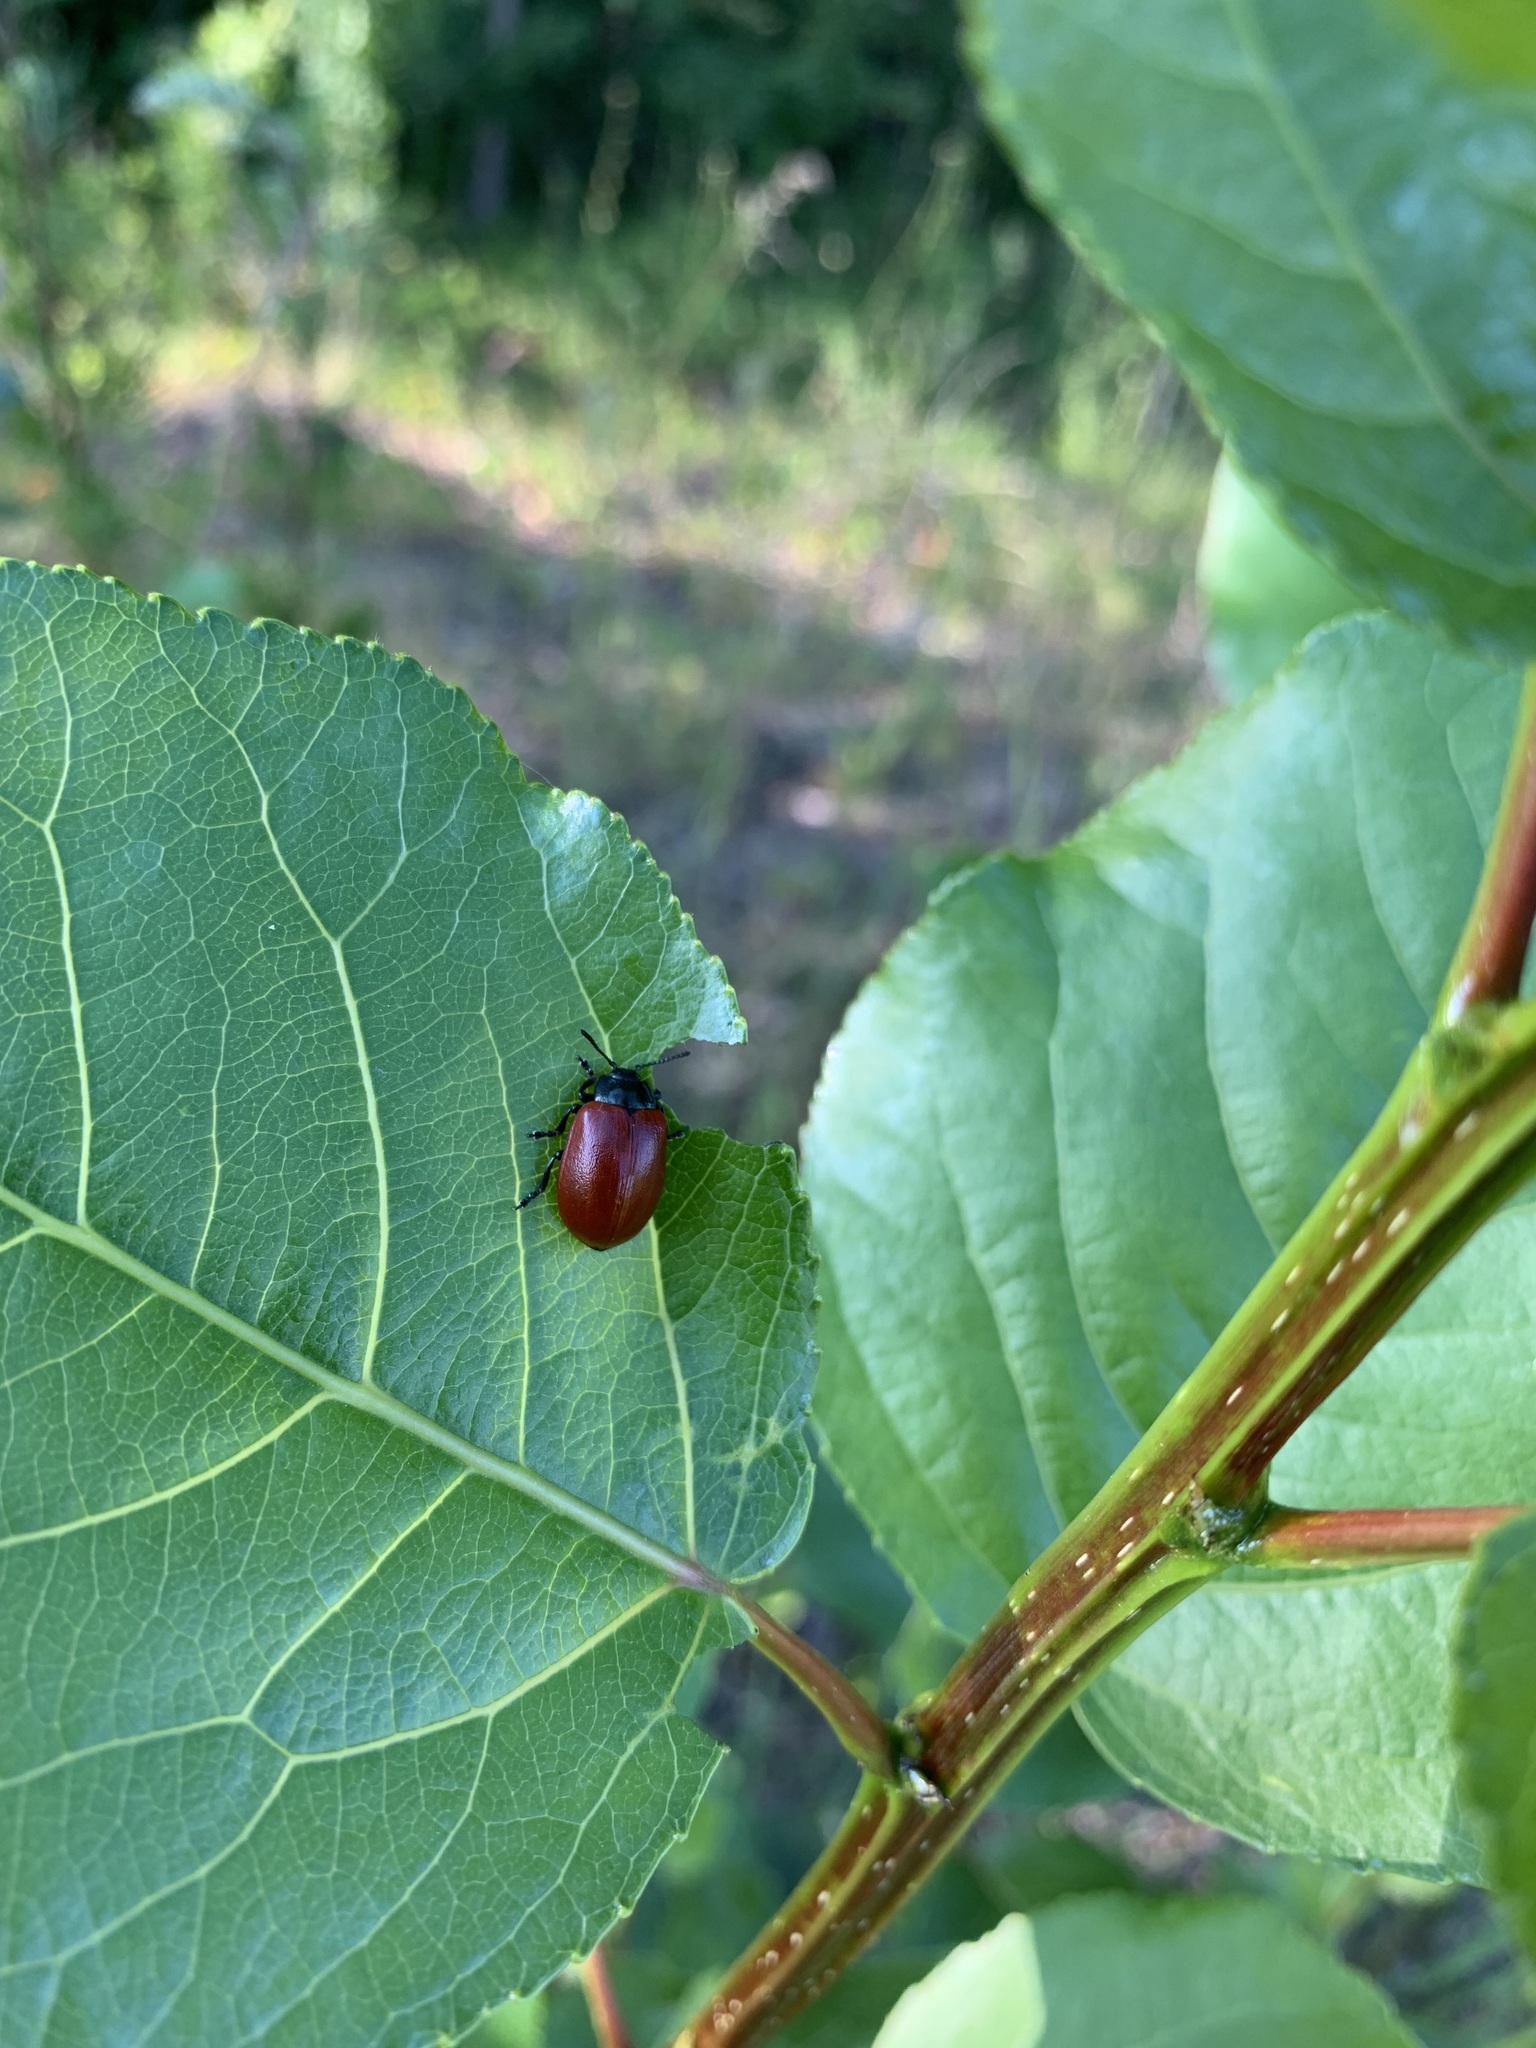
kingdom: Animalia
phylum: Arthropoda
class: Insecta
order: Coleoptera
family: Chrysomelidae
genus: Chrysomela
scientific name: Chrysomela populi
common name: Red poplar leaf beetle
